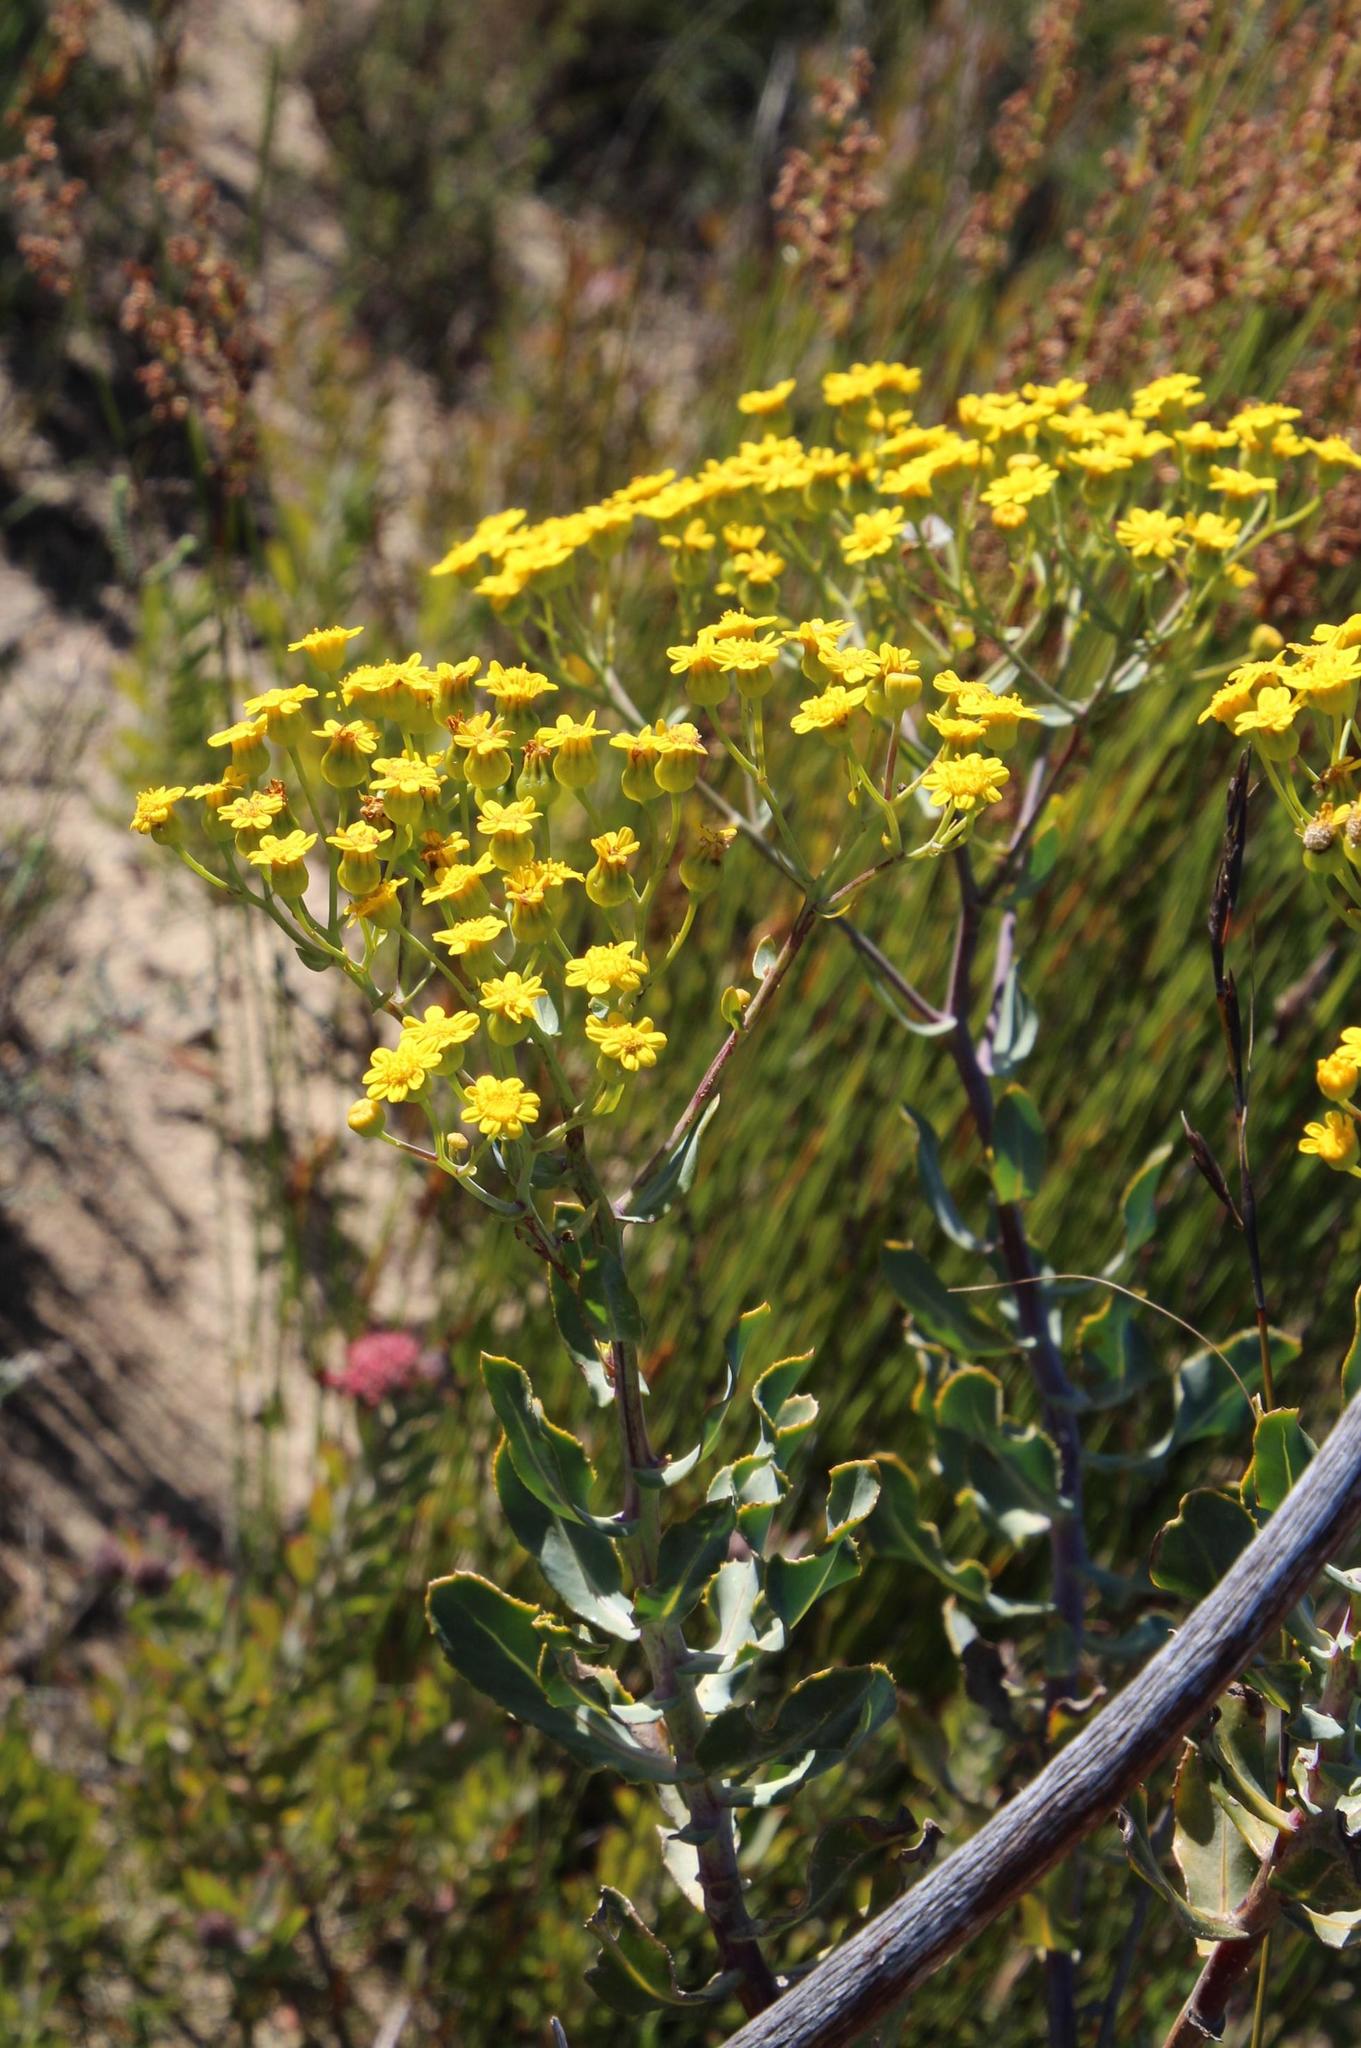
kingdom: Plantae
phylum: Tracheophyta
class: Magnoliopsida
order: Asterales
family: Asteraceae
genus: Othonna
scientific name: Othonna parviflora
